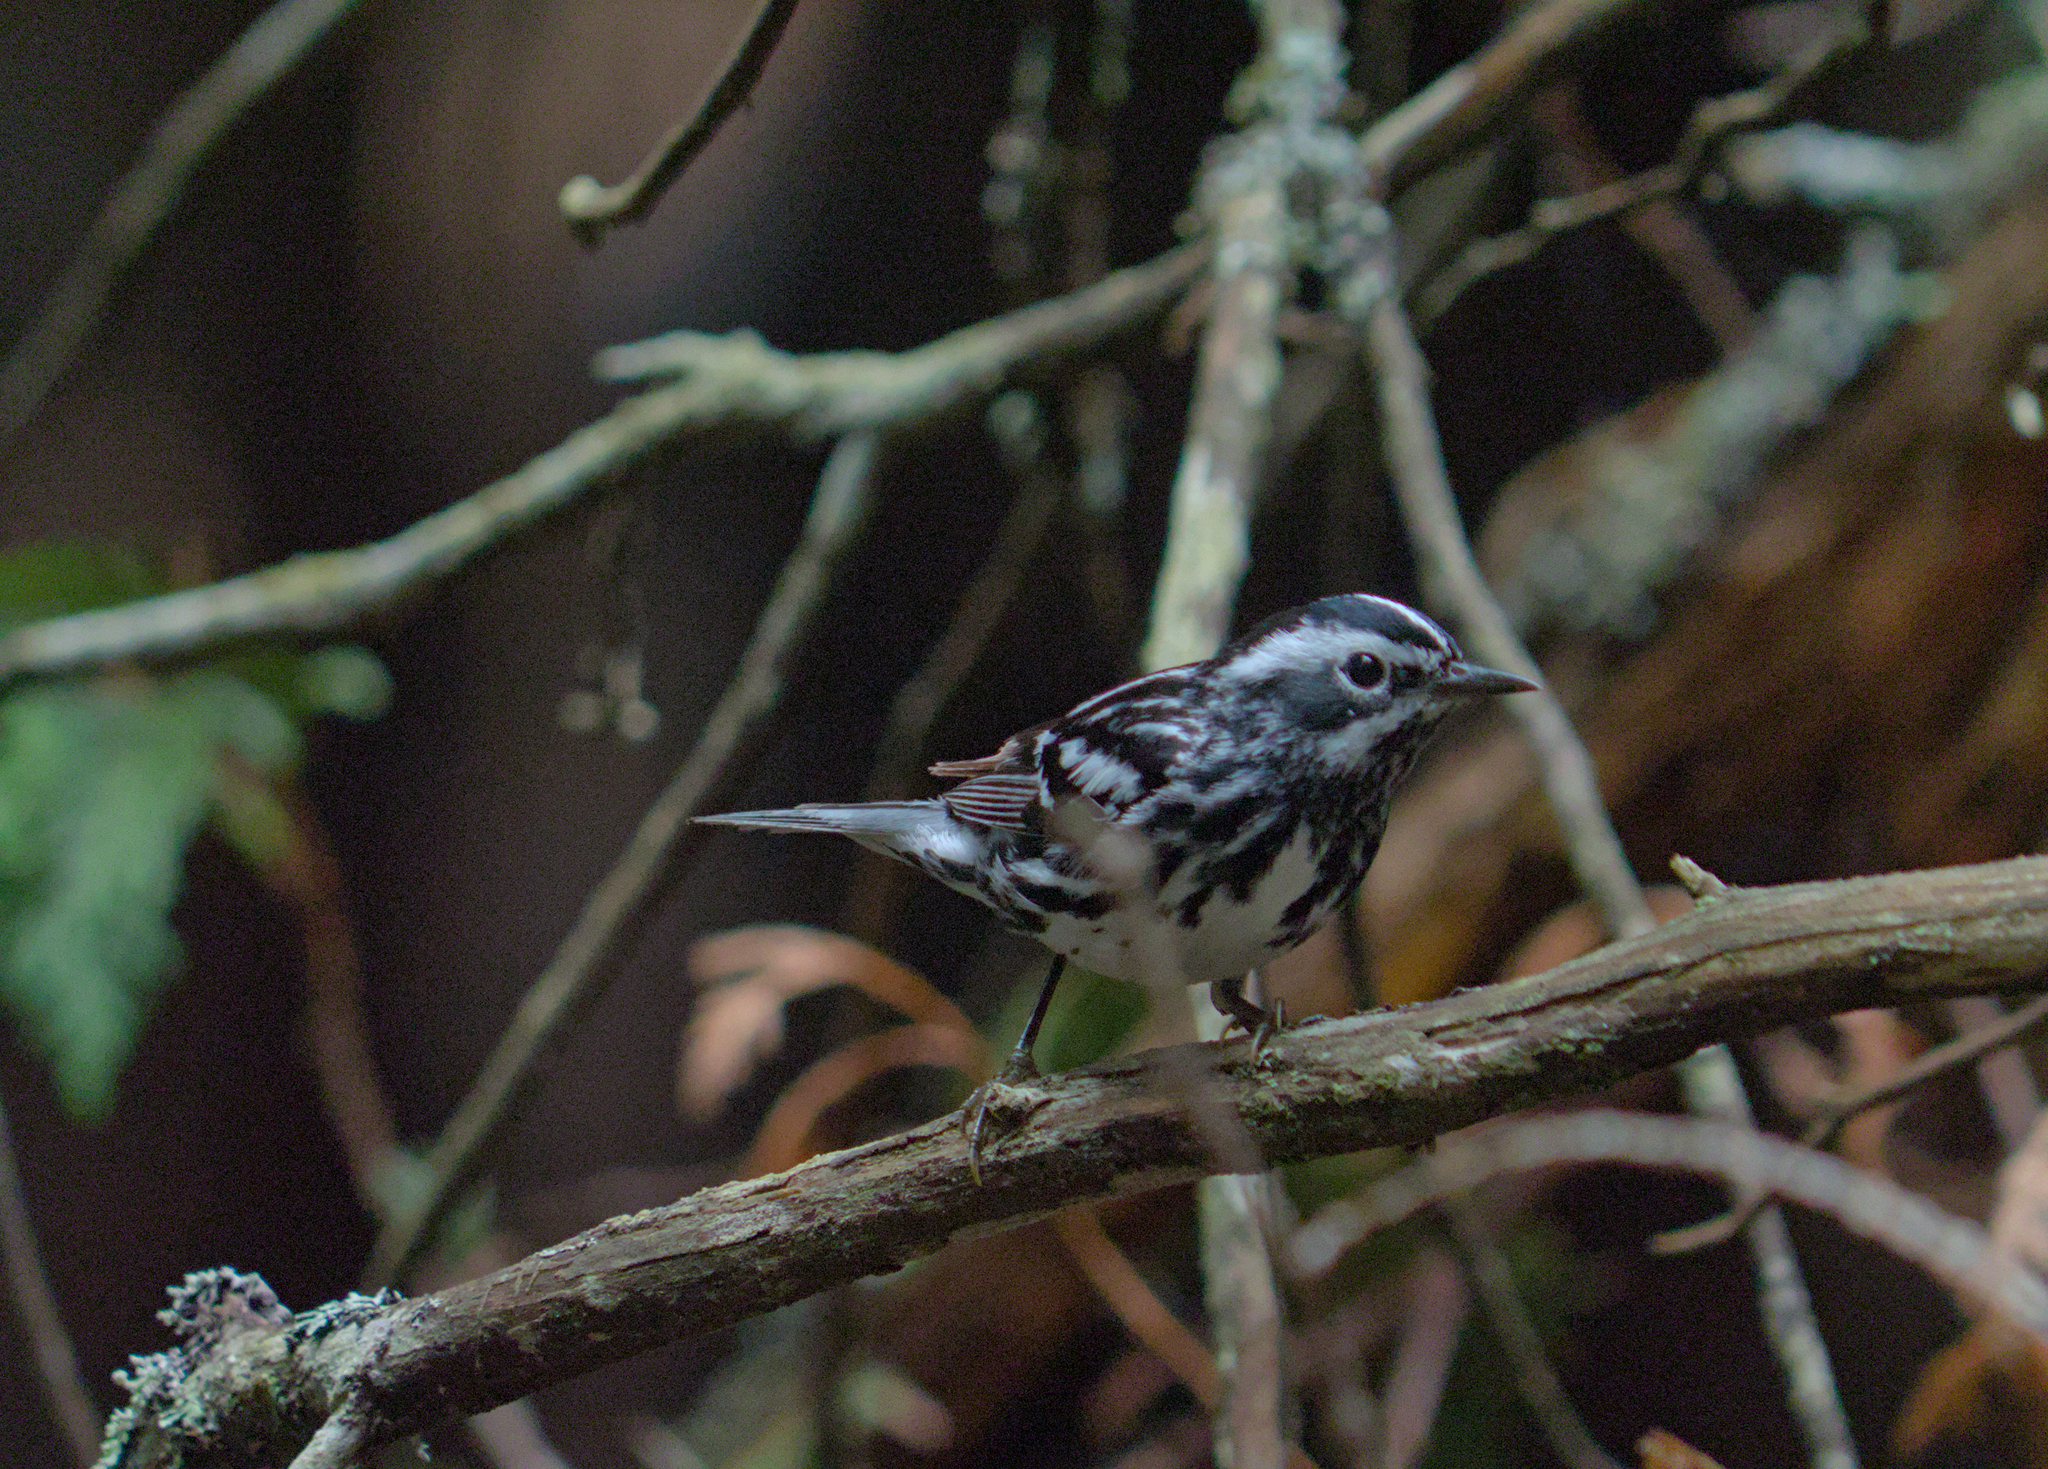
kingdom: Animalia
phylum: Chordata
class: Aves
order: Passeriformes
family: Parulidae
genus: Mniotilta
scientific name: Mniotilta varia
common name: Black-and-white warbler
